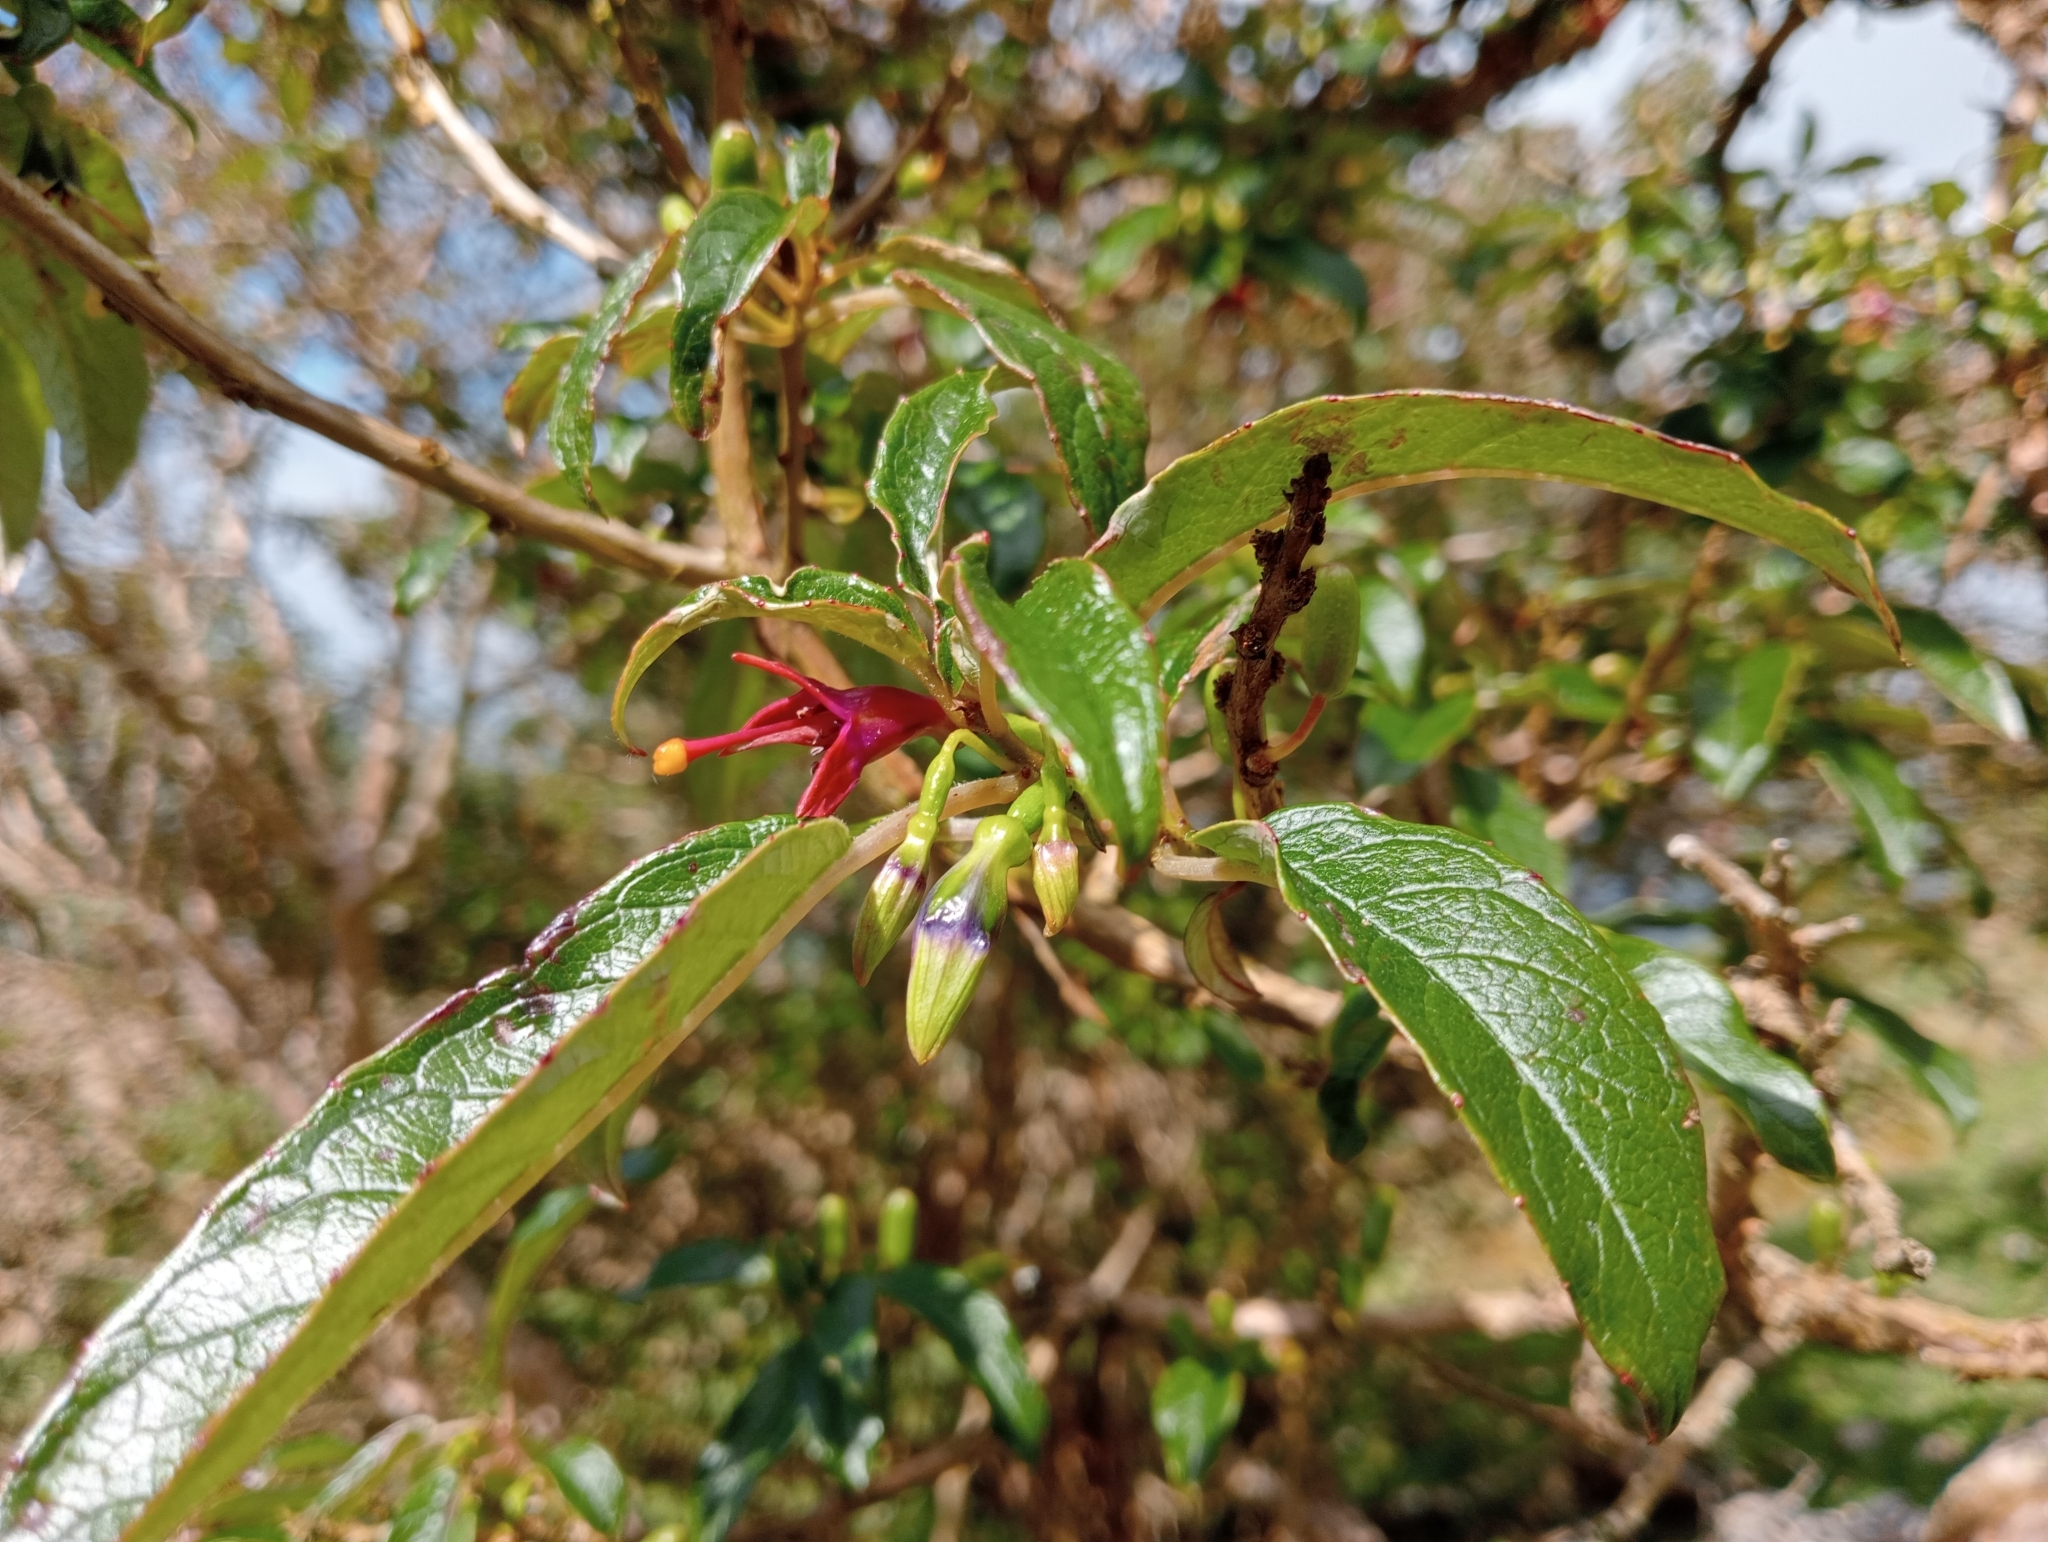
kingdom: Plantae
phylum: Tracheophyta
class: Magnoliopsida
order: Myrtales
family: Onagraceae
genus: Fuchsia
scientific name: Fuchsia excorticata
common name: Tree fuchsia
